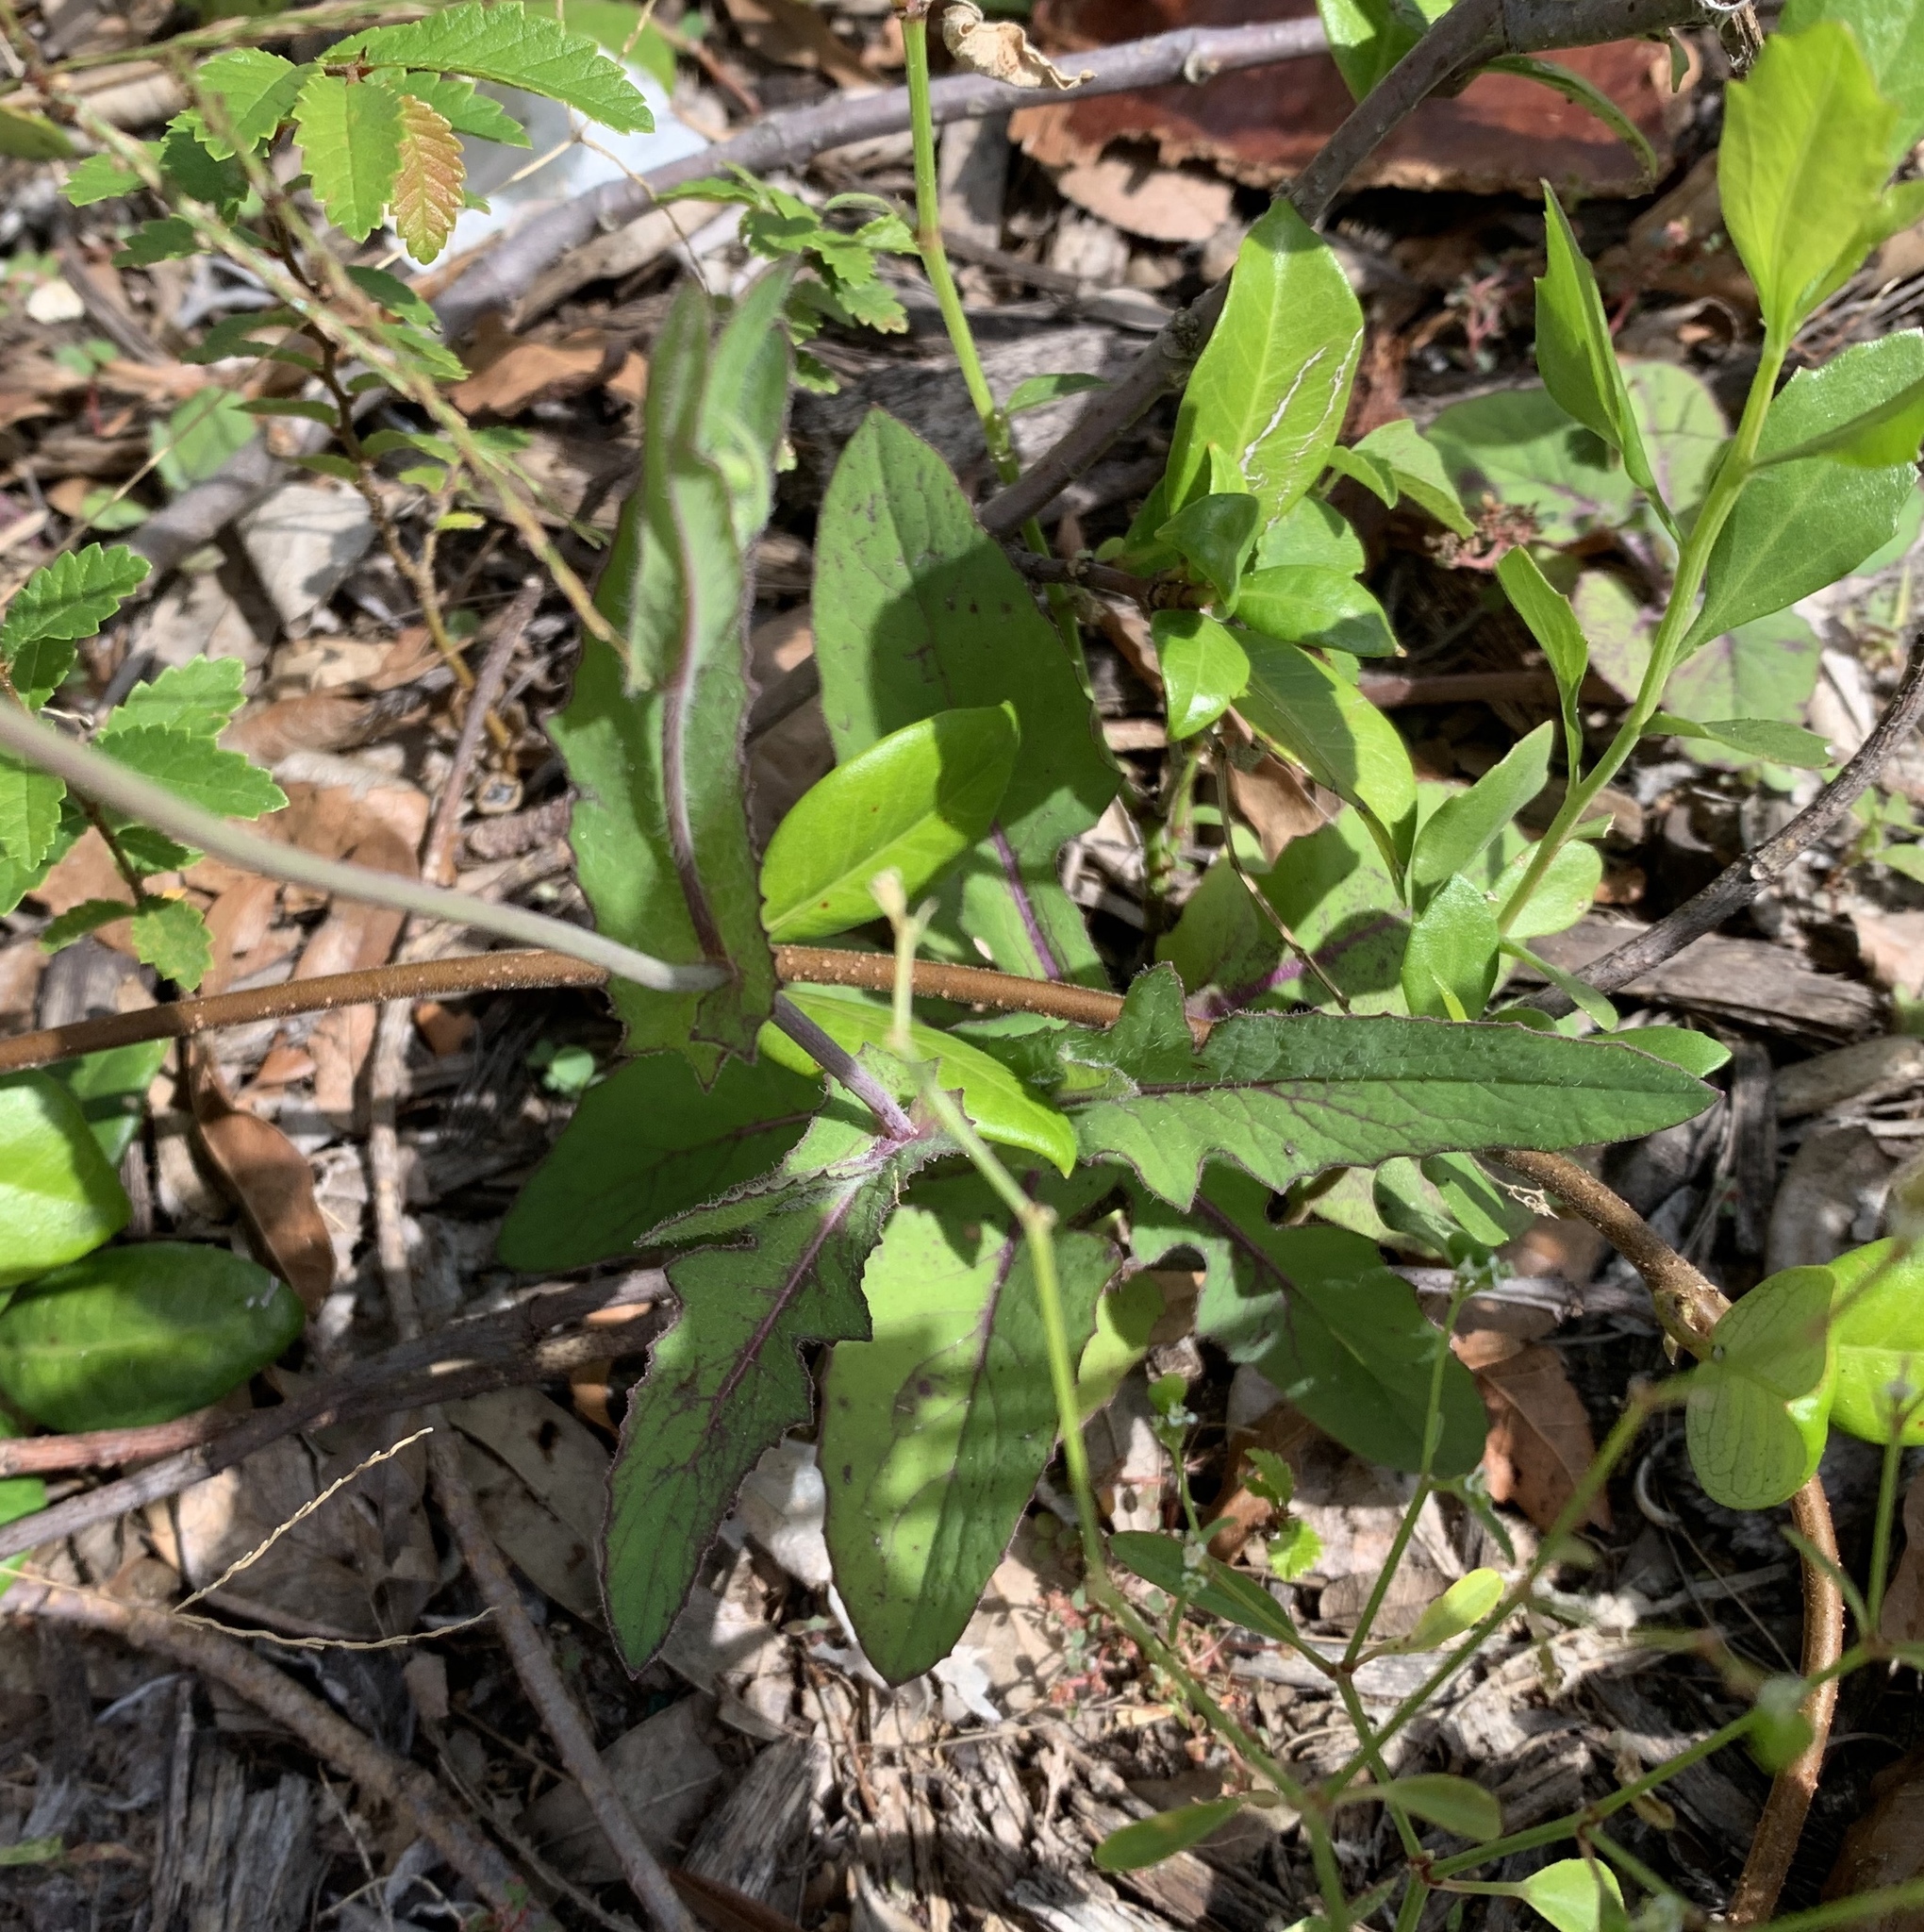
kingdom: Plantae
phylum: Tracheophyta
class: Magnoliopsida
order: Asterales
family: Asteraceae
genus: Emilia
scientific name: Emilia sonchifolia
